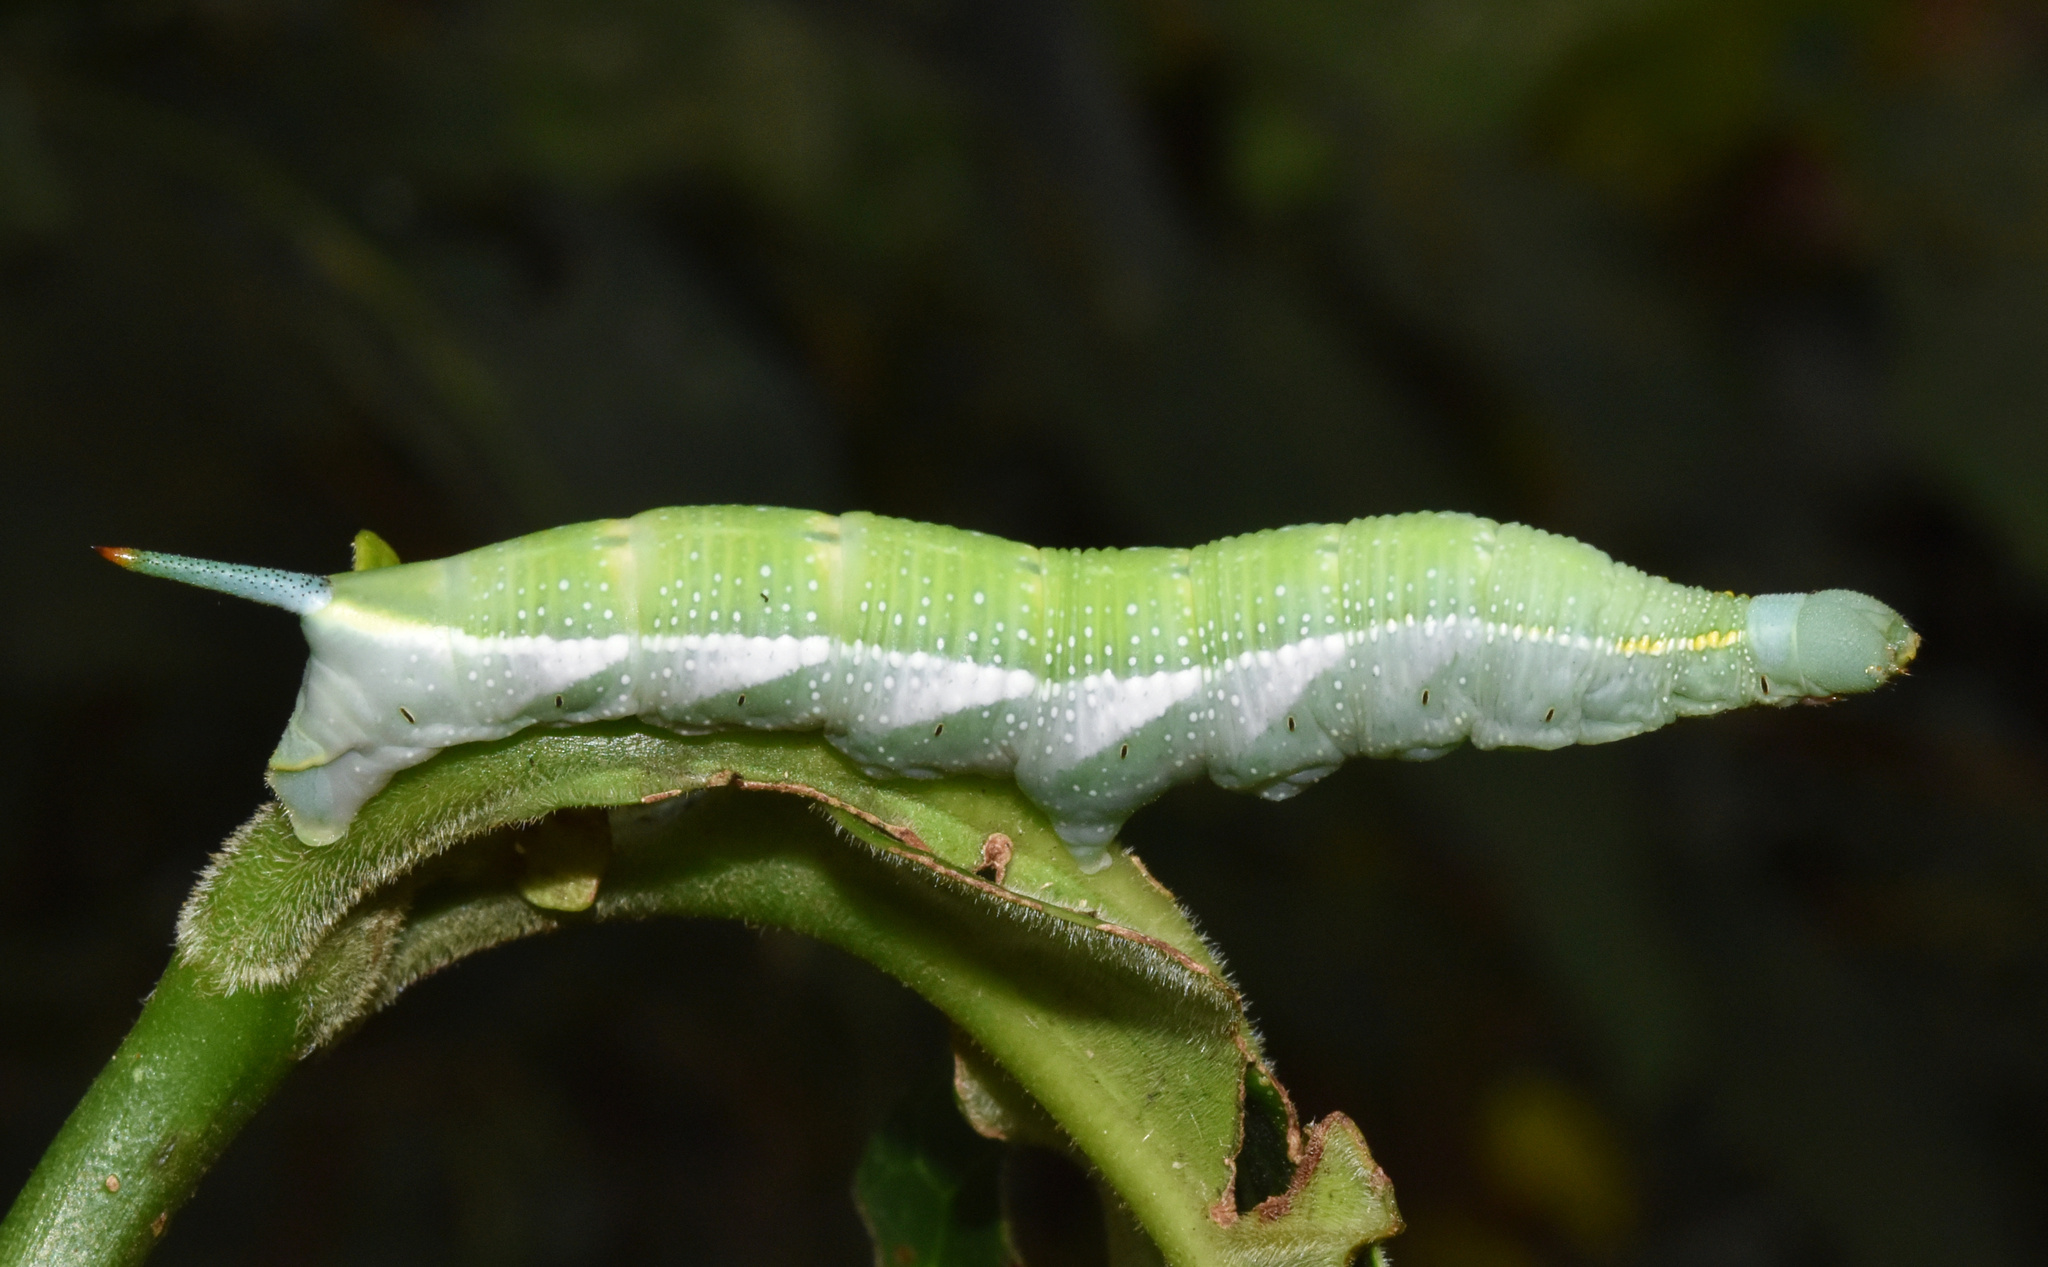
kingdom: Animalia
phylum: Arthropoda
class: Insecta
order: Lepidoptera
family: Sphingidae
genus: Temnora
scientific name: Temnora marginata
